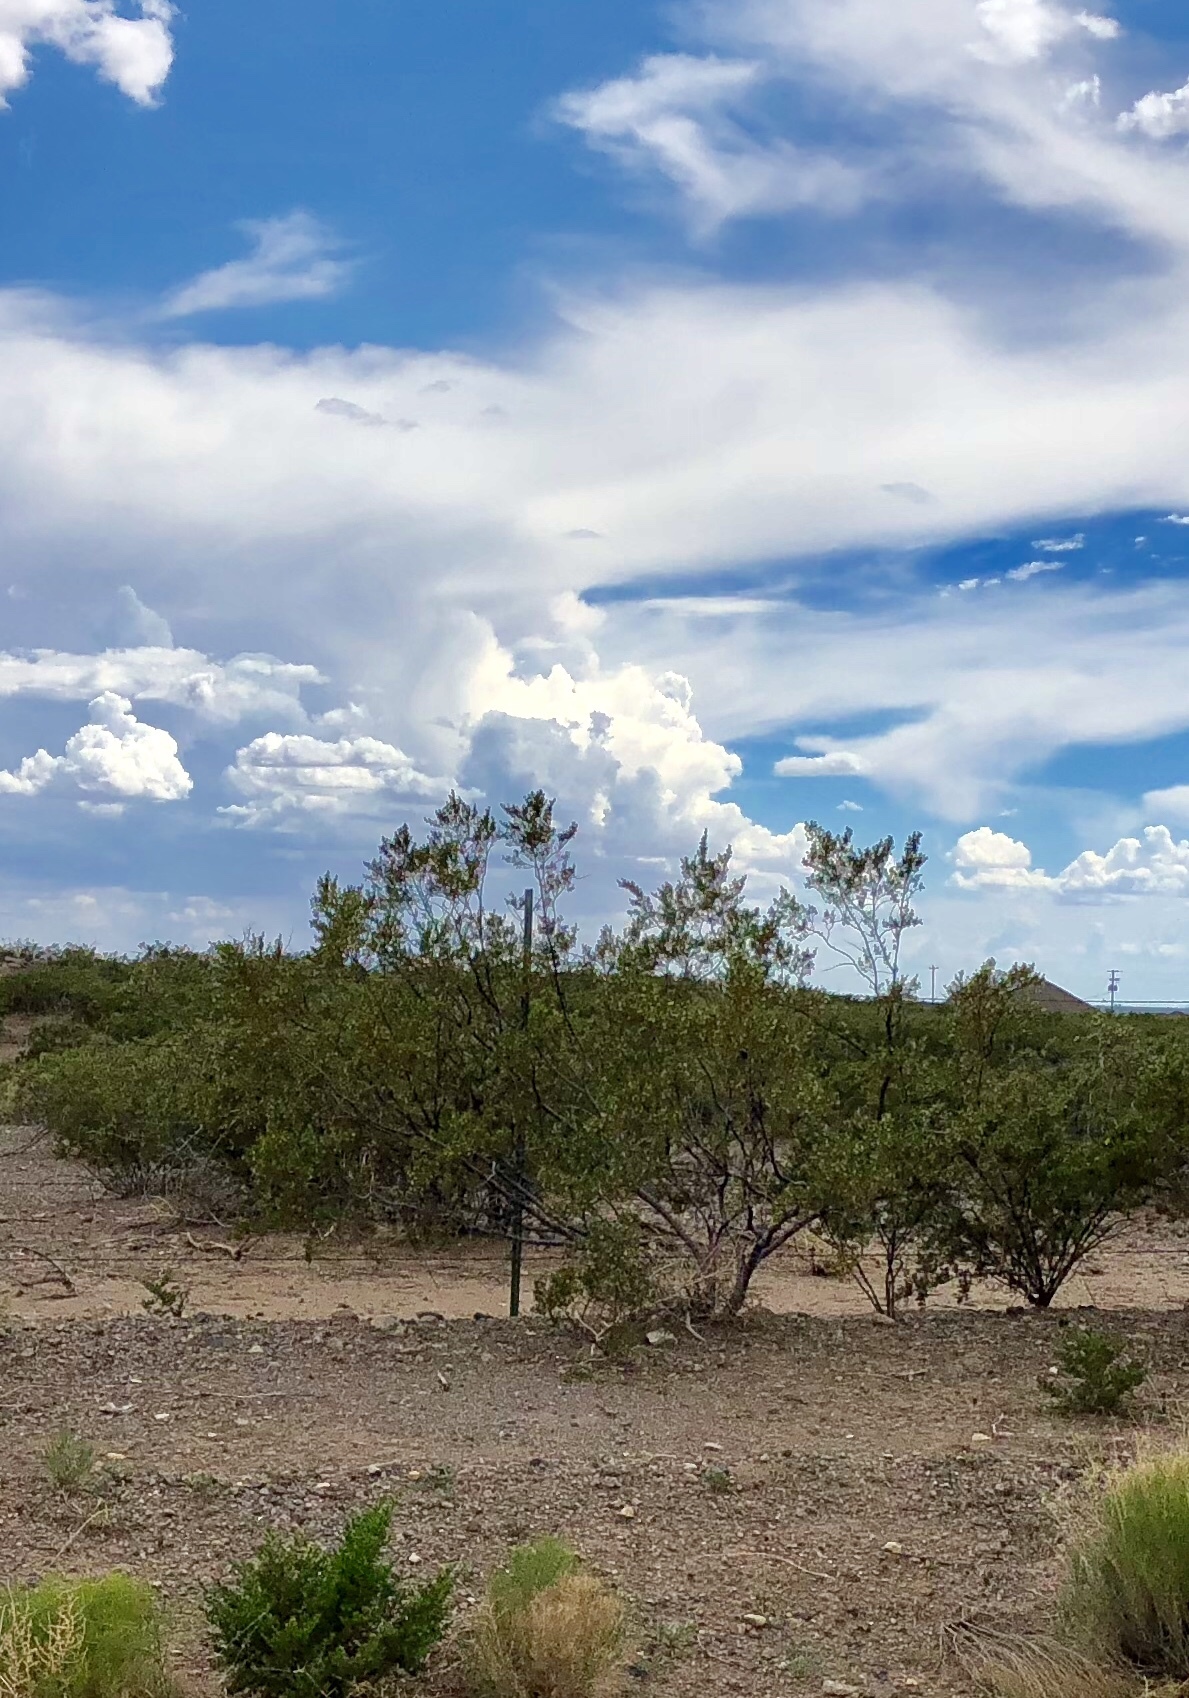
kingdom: Plantae
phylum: Tracheophyta
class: Magnoliopsida
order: Zygophyllales
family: Zygophyllaceae
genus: Larrea
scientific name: Larrea tridentata
